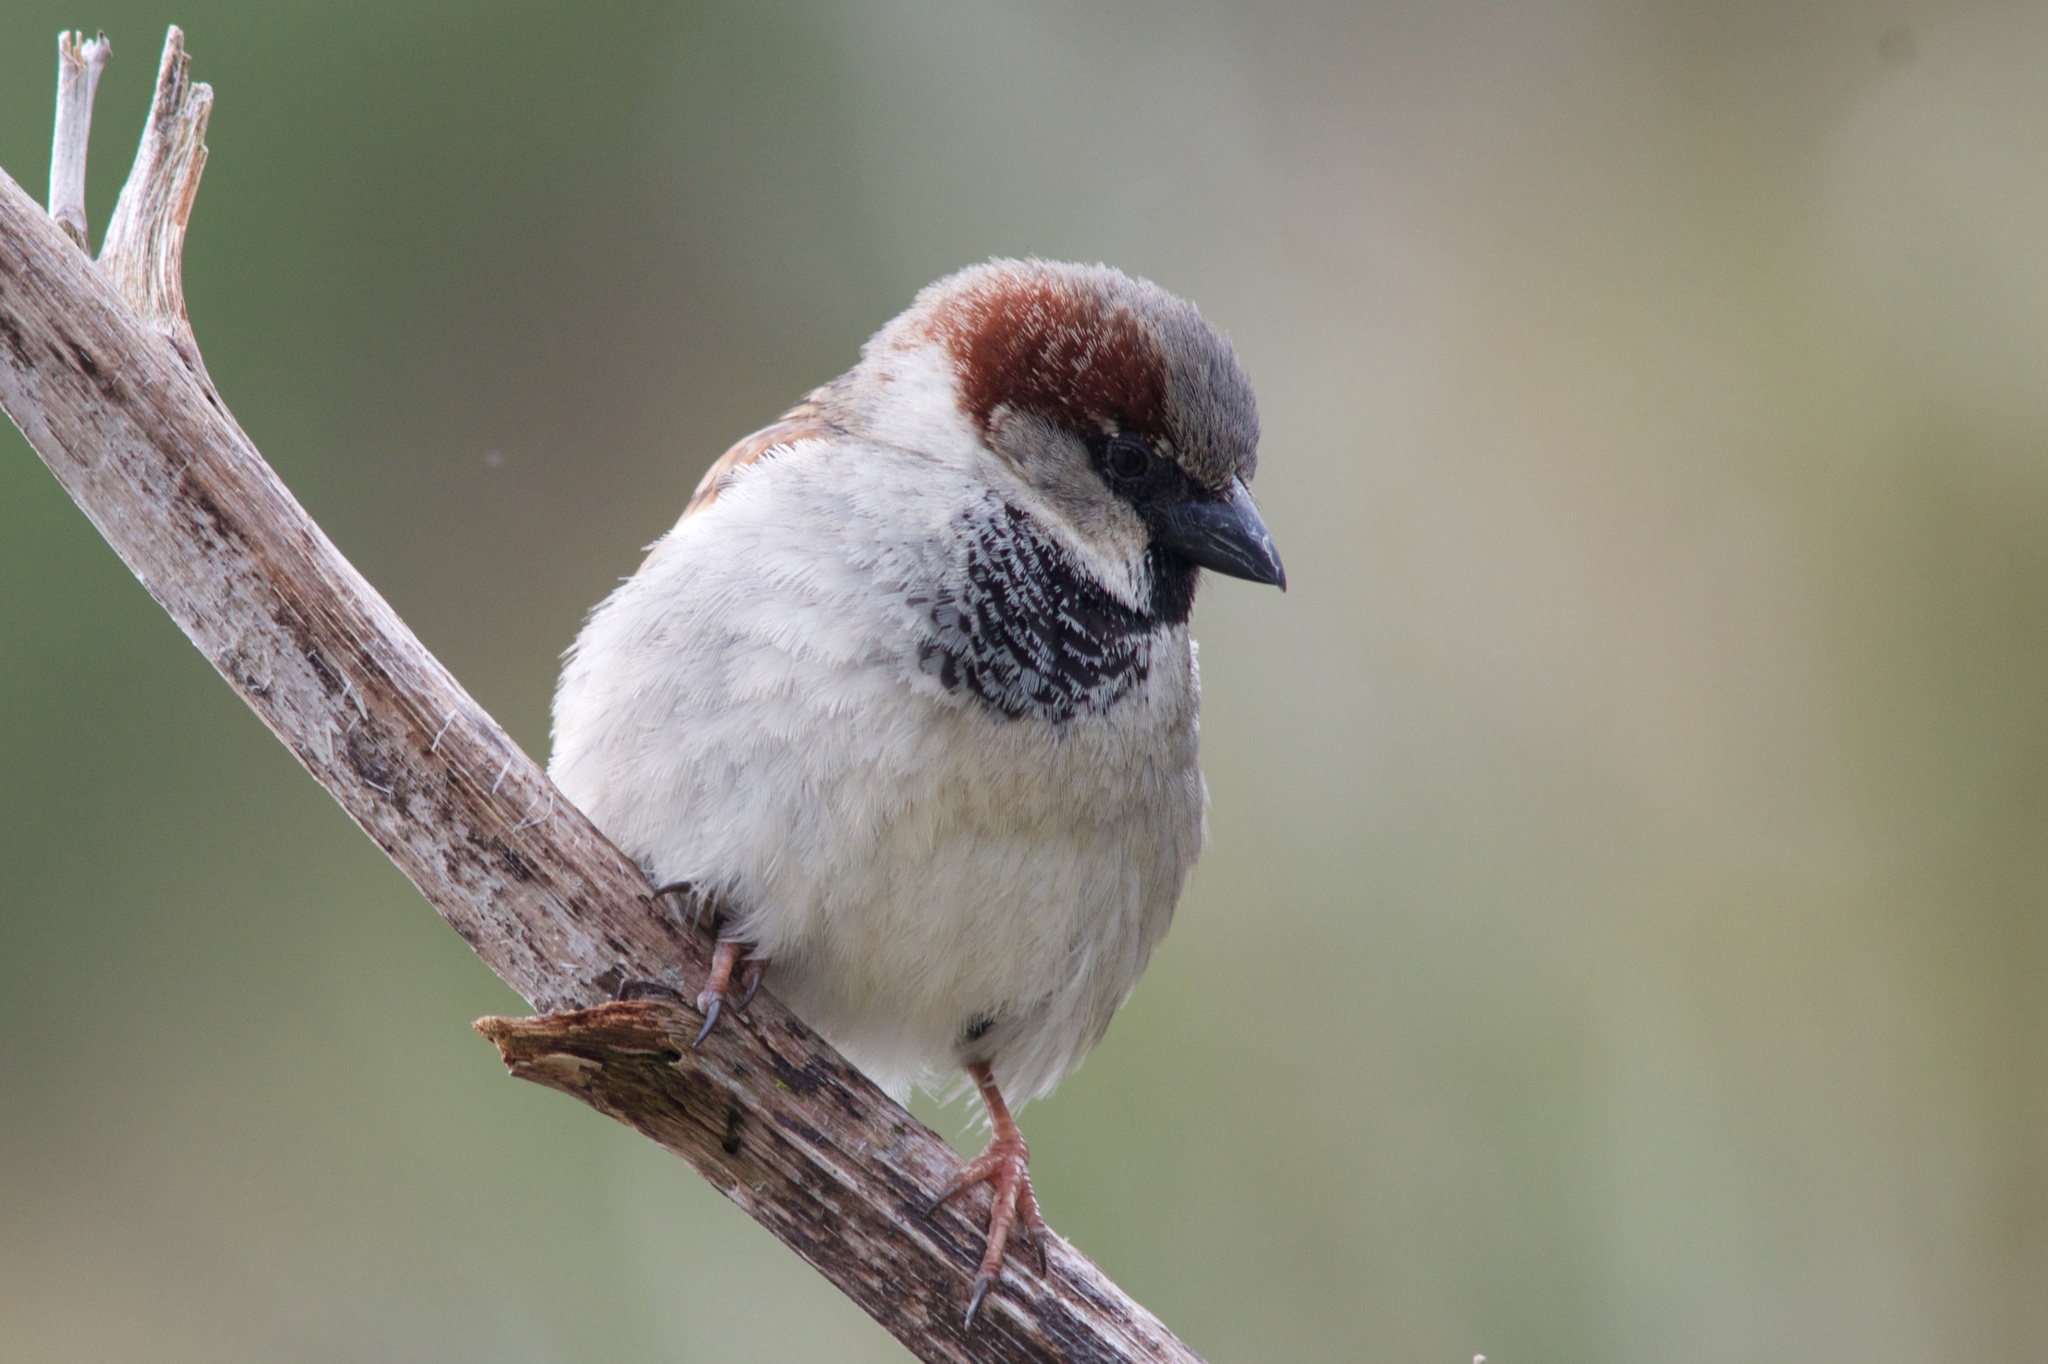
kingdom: Animalia
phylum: Chordata
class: Aves
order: Passeriformes
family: Passeridae
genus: Passer
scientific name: Passer domesticus
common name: House sparrow
